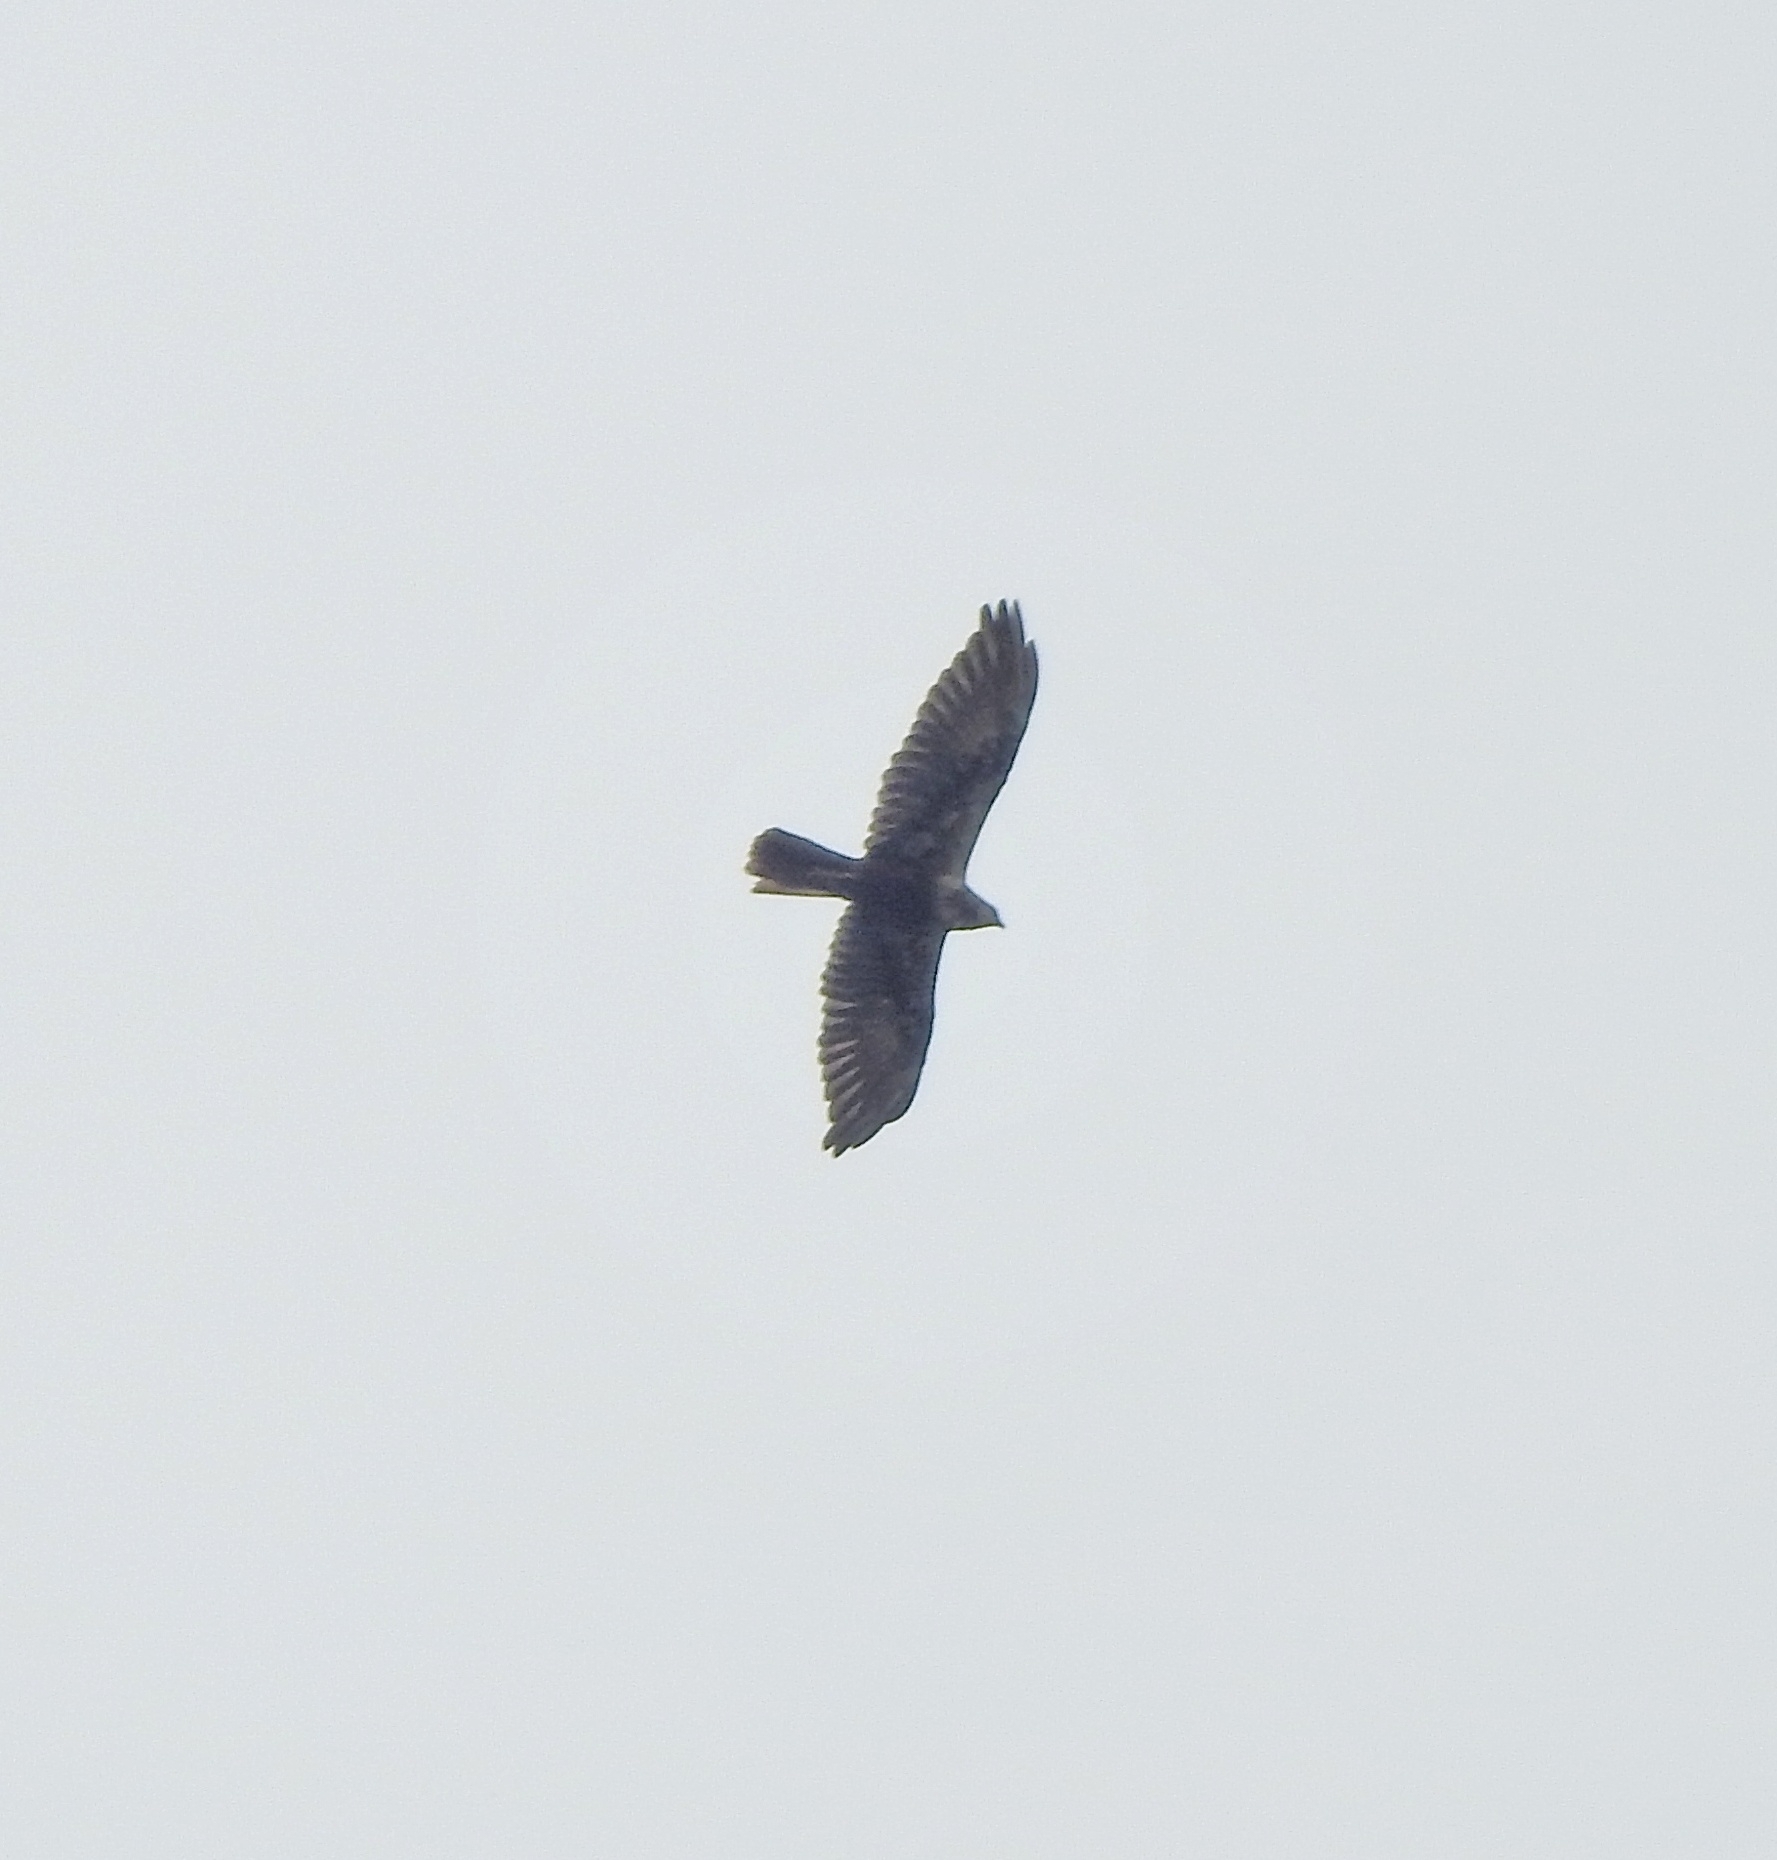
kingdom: Animalia
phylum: Chordata
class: Aves
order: Accipitriformes
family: Accipitridae
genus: Circus
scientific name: Circus aeruginosus
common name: Western marsh harrier
